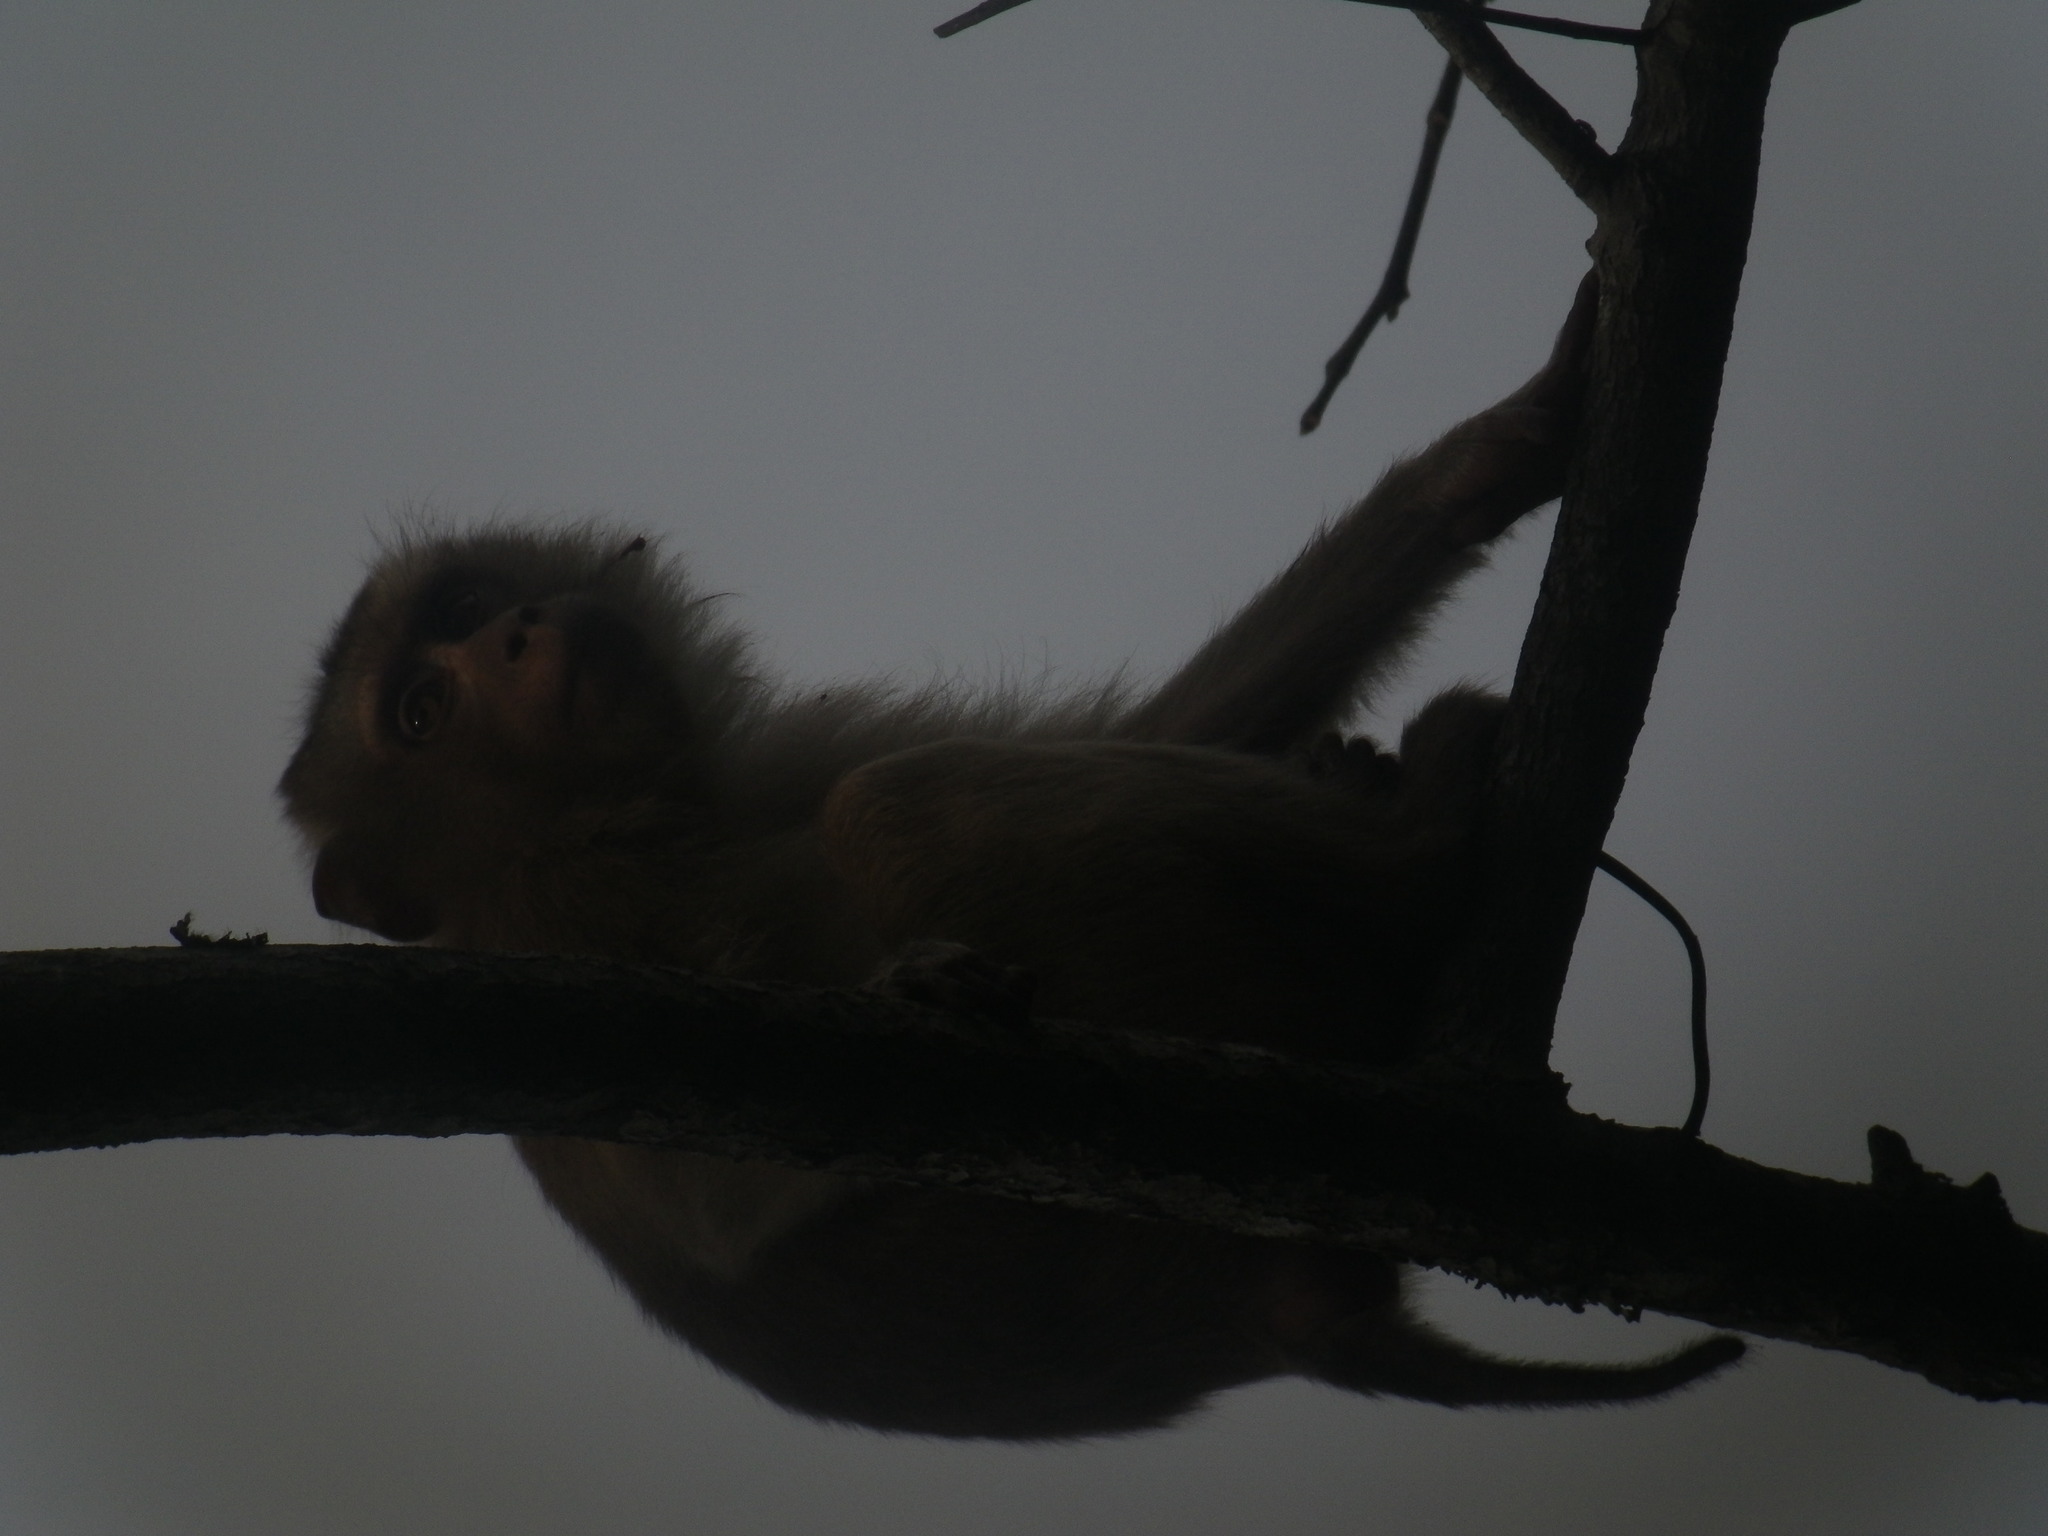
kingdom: Animalia
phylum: Chordata
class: Mammalia
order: Primates
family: Cercopithecidae
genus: Macaca
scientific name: Macaca leonina
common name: Northern pig-tailed macaque
